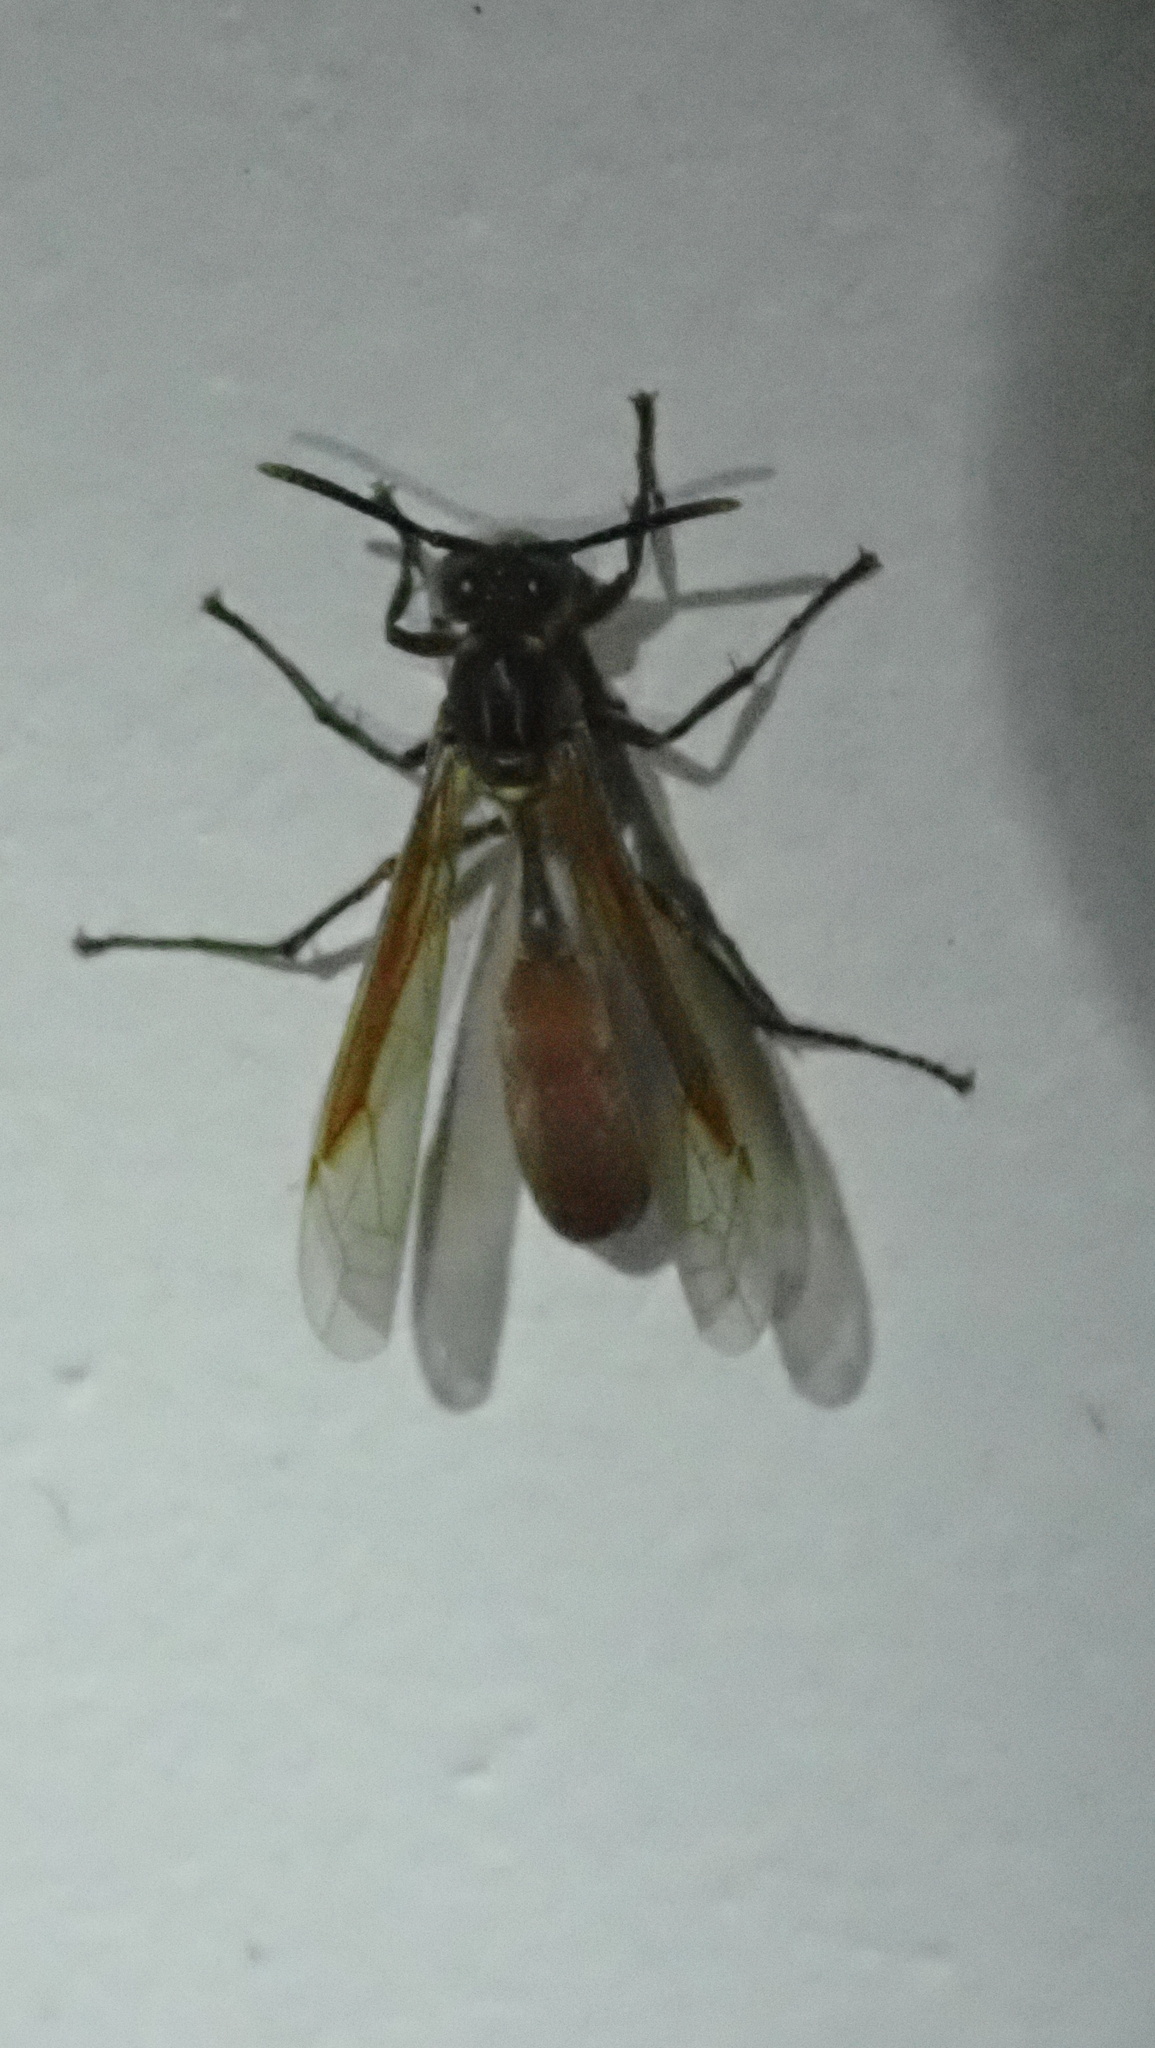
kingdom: Animalia
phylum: Arthropoda
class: Insecta
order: Hymenoptera
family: Vespidae
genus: Apoica
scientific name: Apoica pallida
